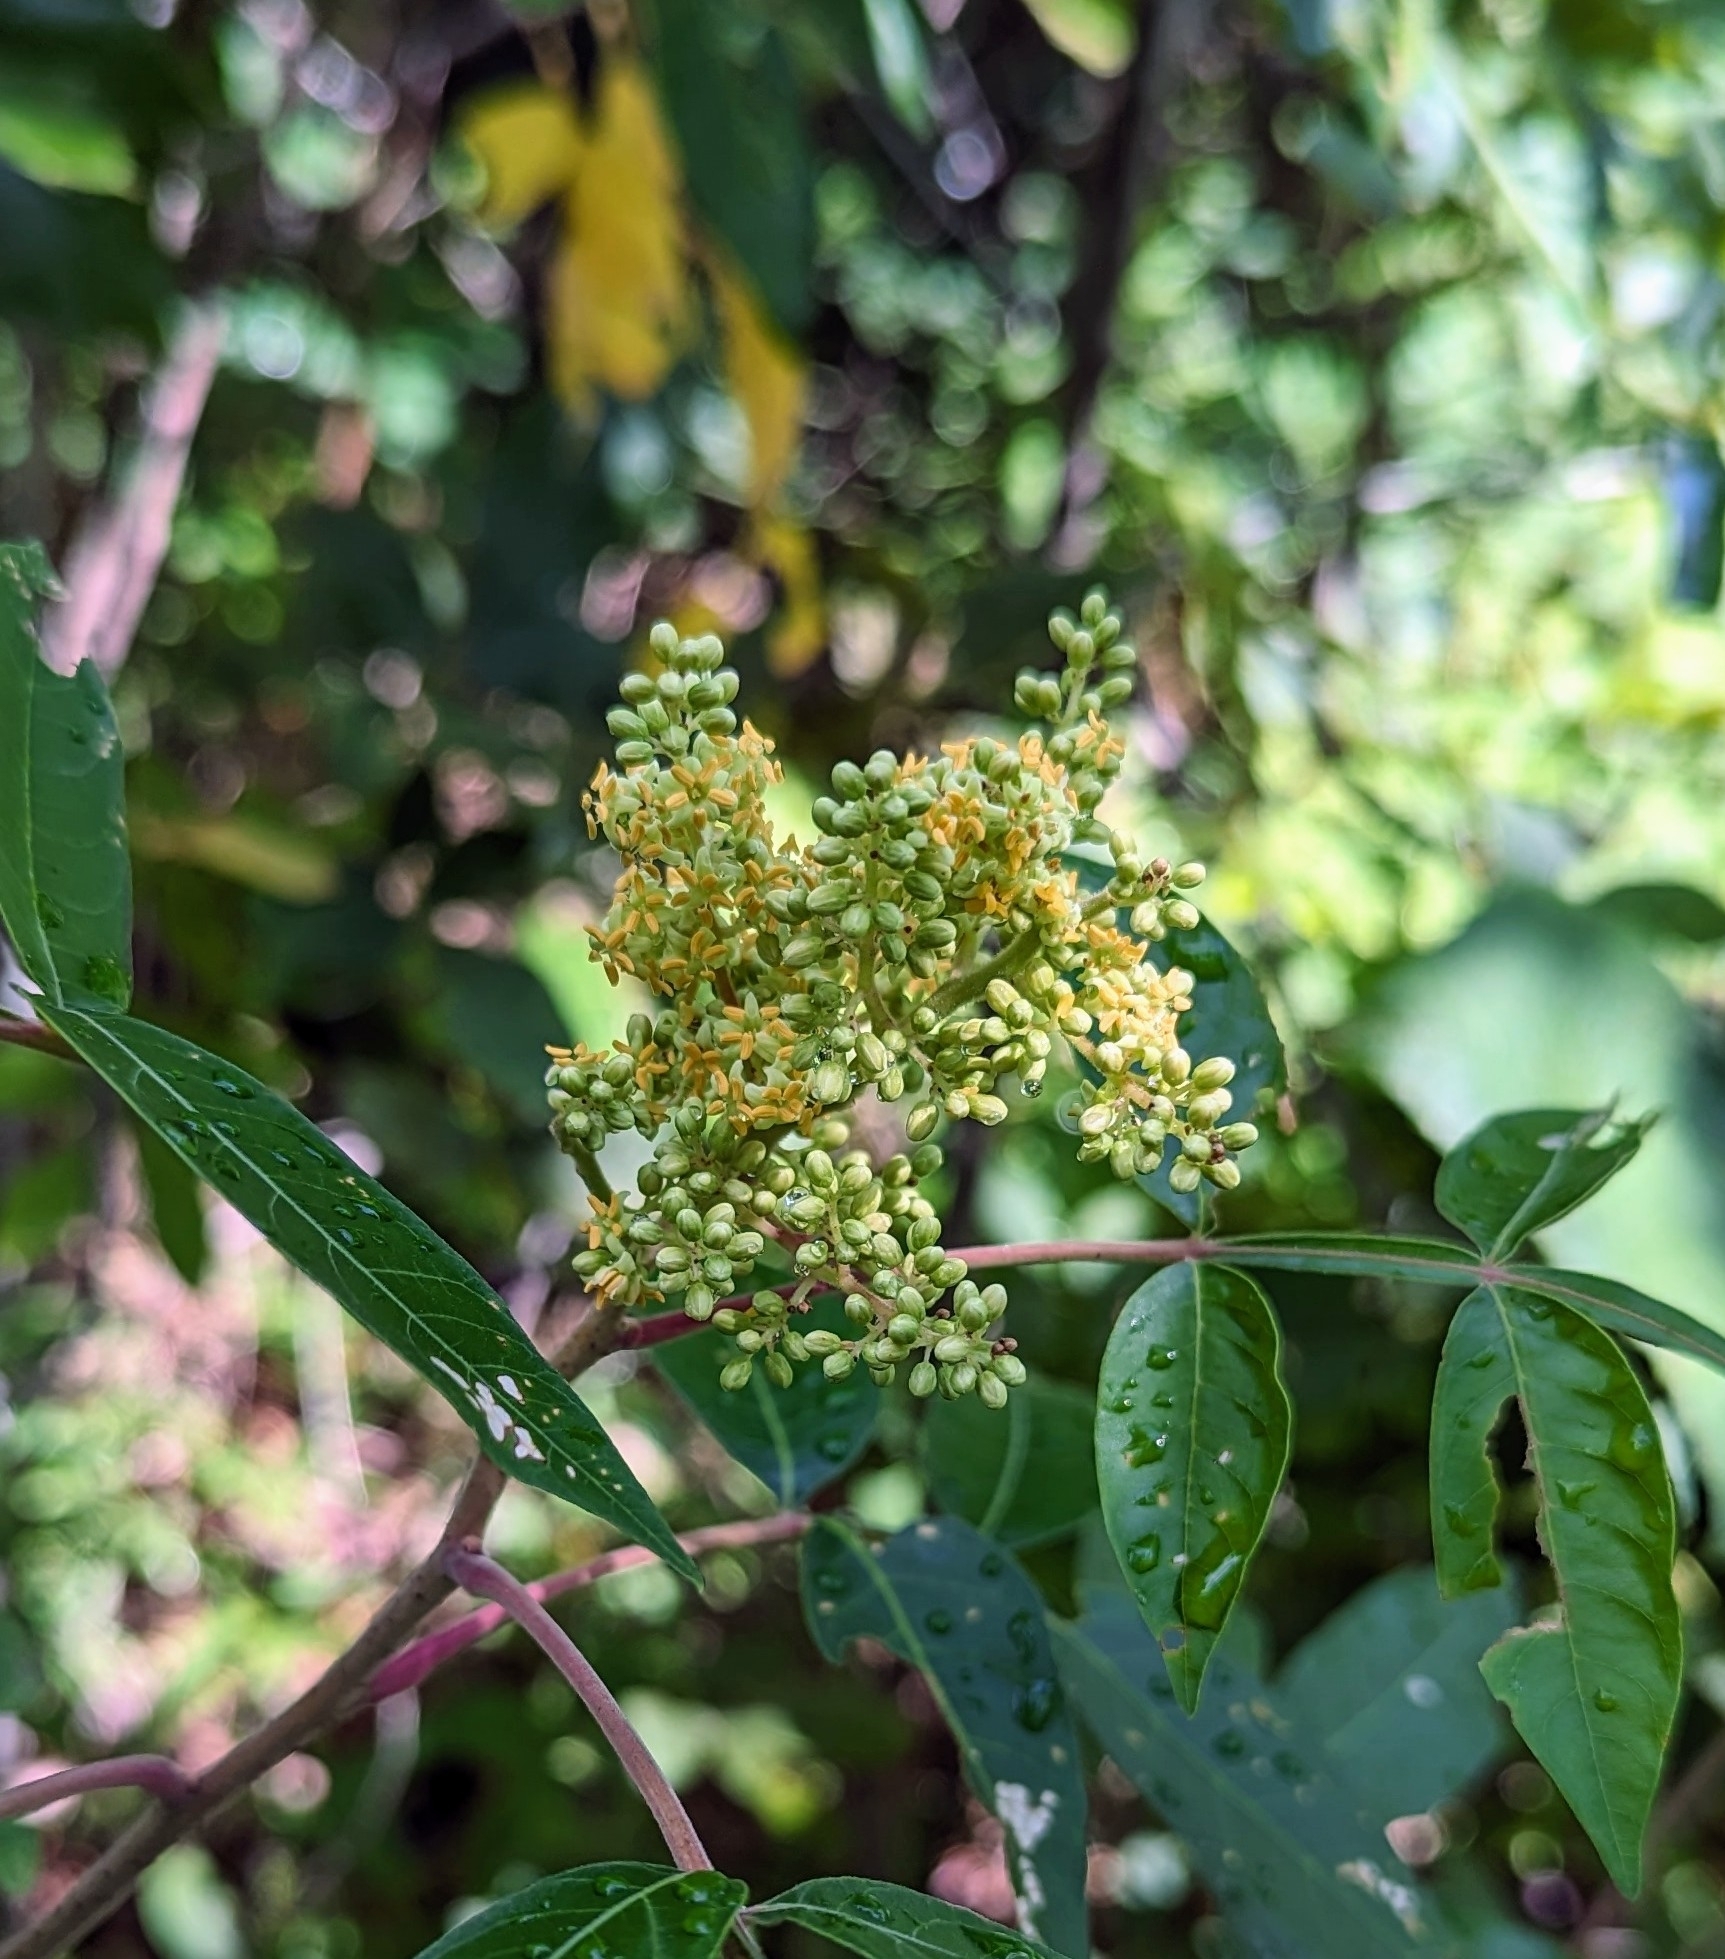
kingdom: Plantae
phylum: Tracheophyta
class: Magnoliopsida
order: Sapindales
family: Anacardiaceae
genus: Rhus
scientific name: Rhus copallina
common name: Shining sumac
